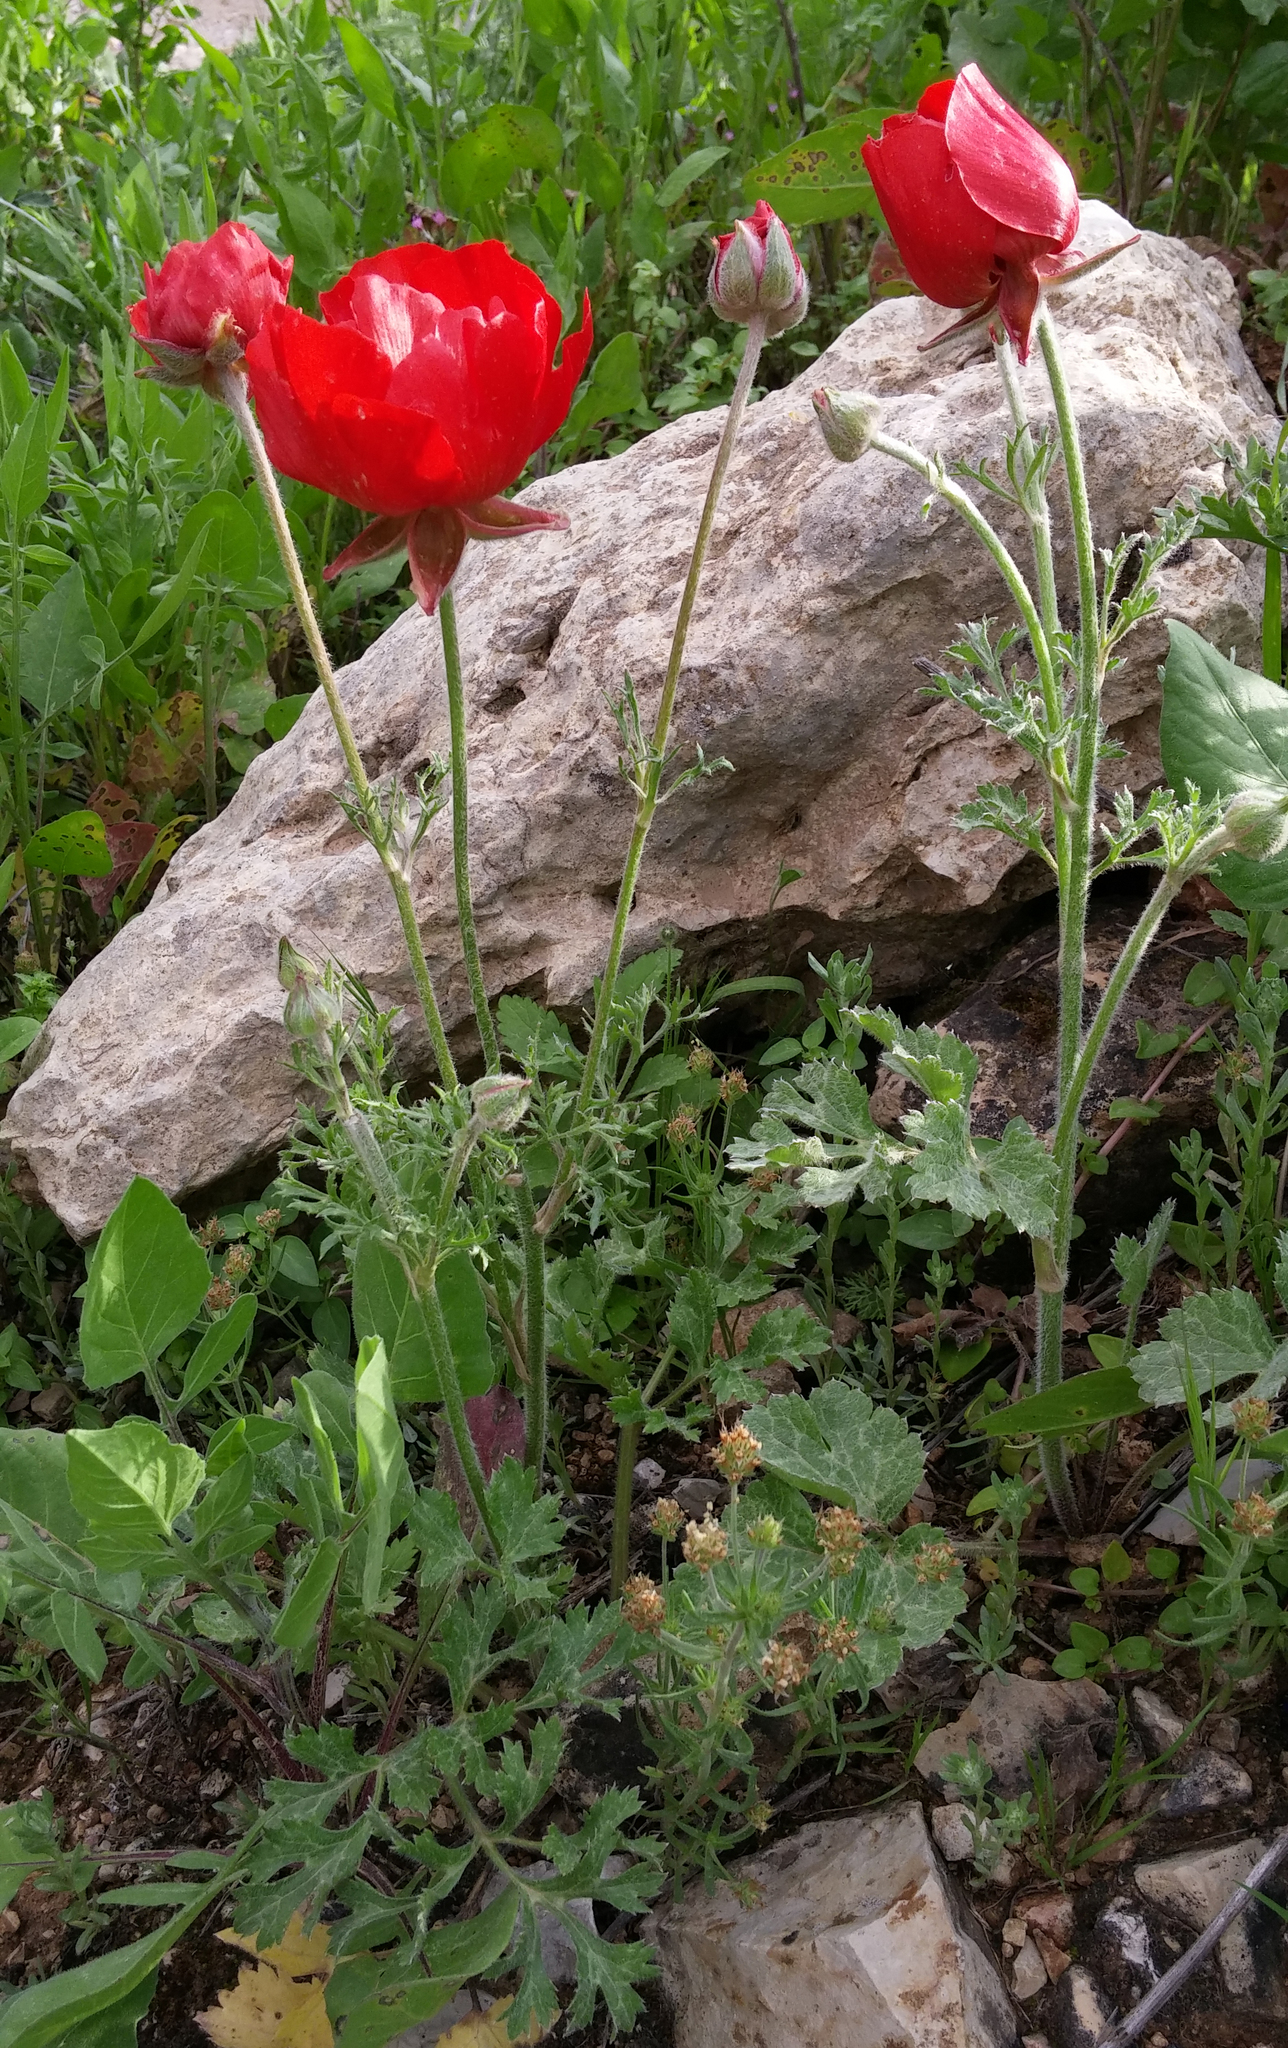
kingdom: Plantae
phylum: Tracheophyta
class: Magnoliopsida
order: Ranunculales
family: Ranunculaceae
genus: Ranunculus
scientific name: Ranunculus asiaticus
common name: Persian buttercup
